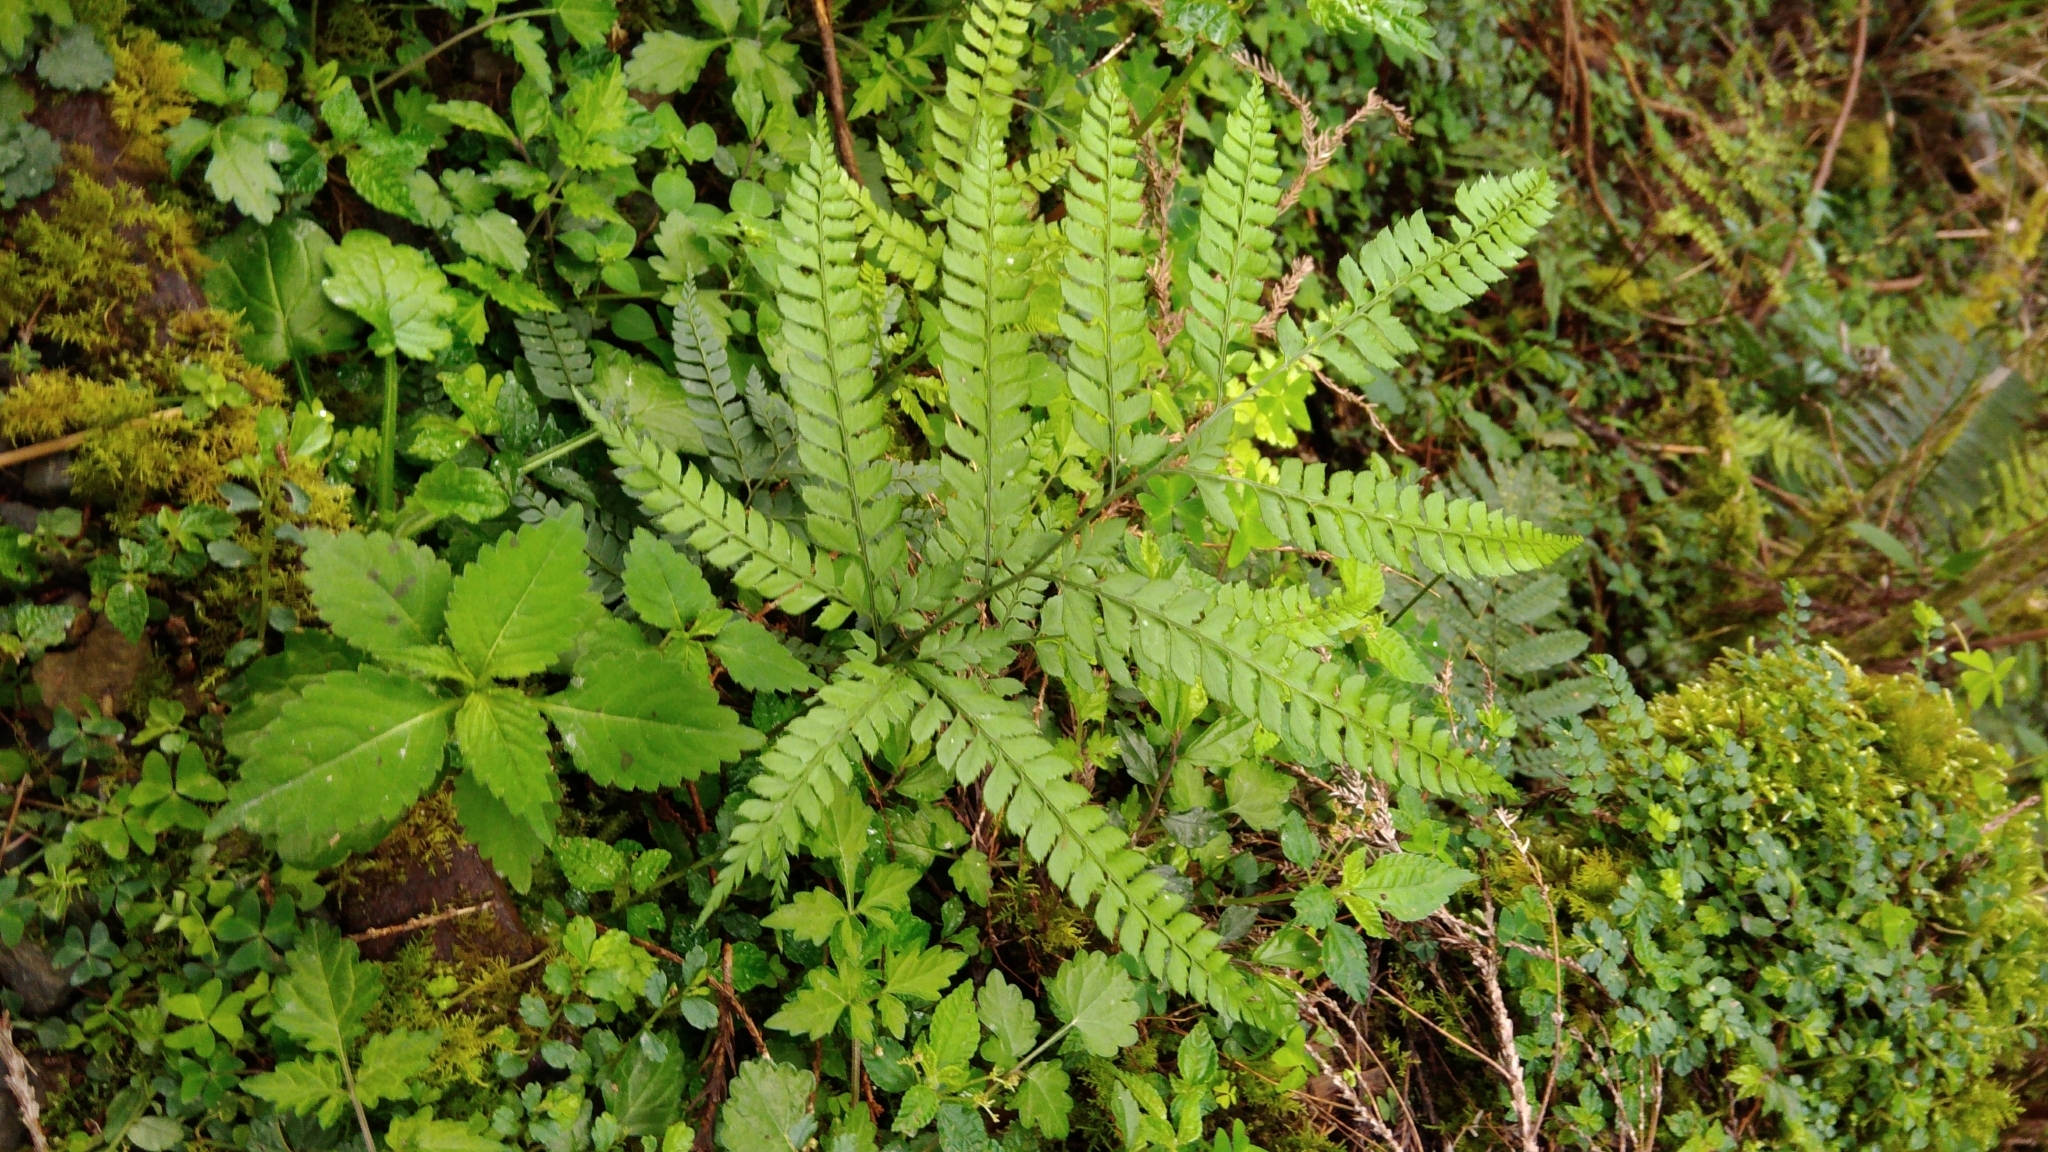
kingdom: Plantae
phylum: Tracheophyta
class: Polypodiopsida
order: Polypodiales
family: Dryopteridaceae
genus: Arachniodes
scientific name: Arachniodes rhomboidea
